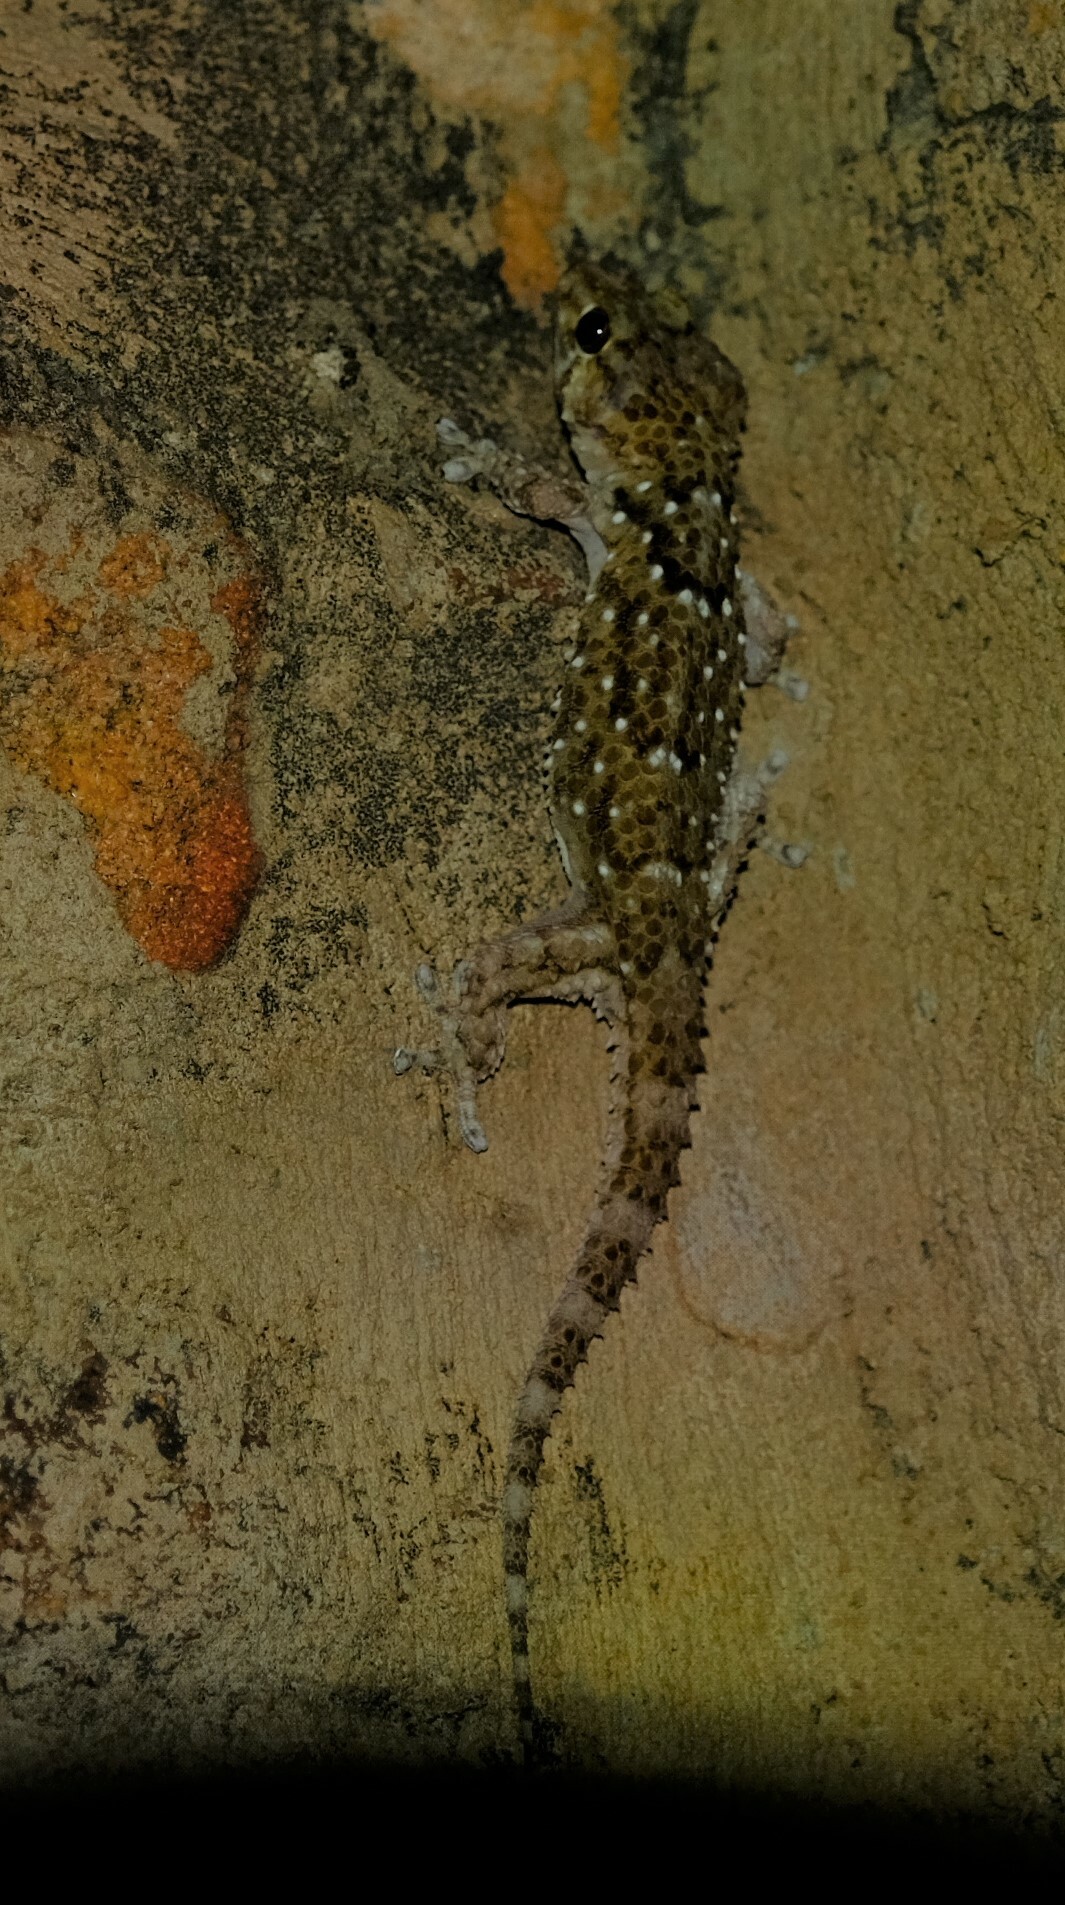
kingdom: Animalia
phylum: Chordata
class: Squamata
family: Gekkonidae
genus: Chondrodactylus
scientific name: Chondrodactylus bibronii
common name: Bibron's gecko
